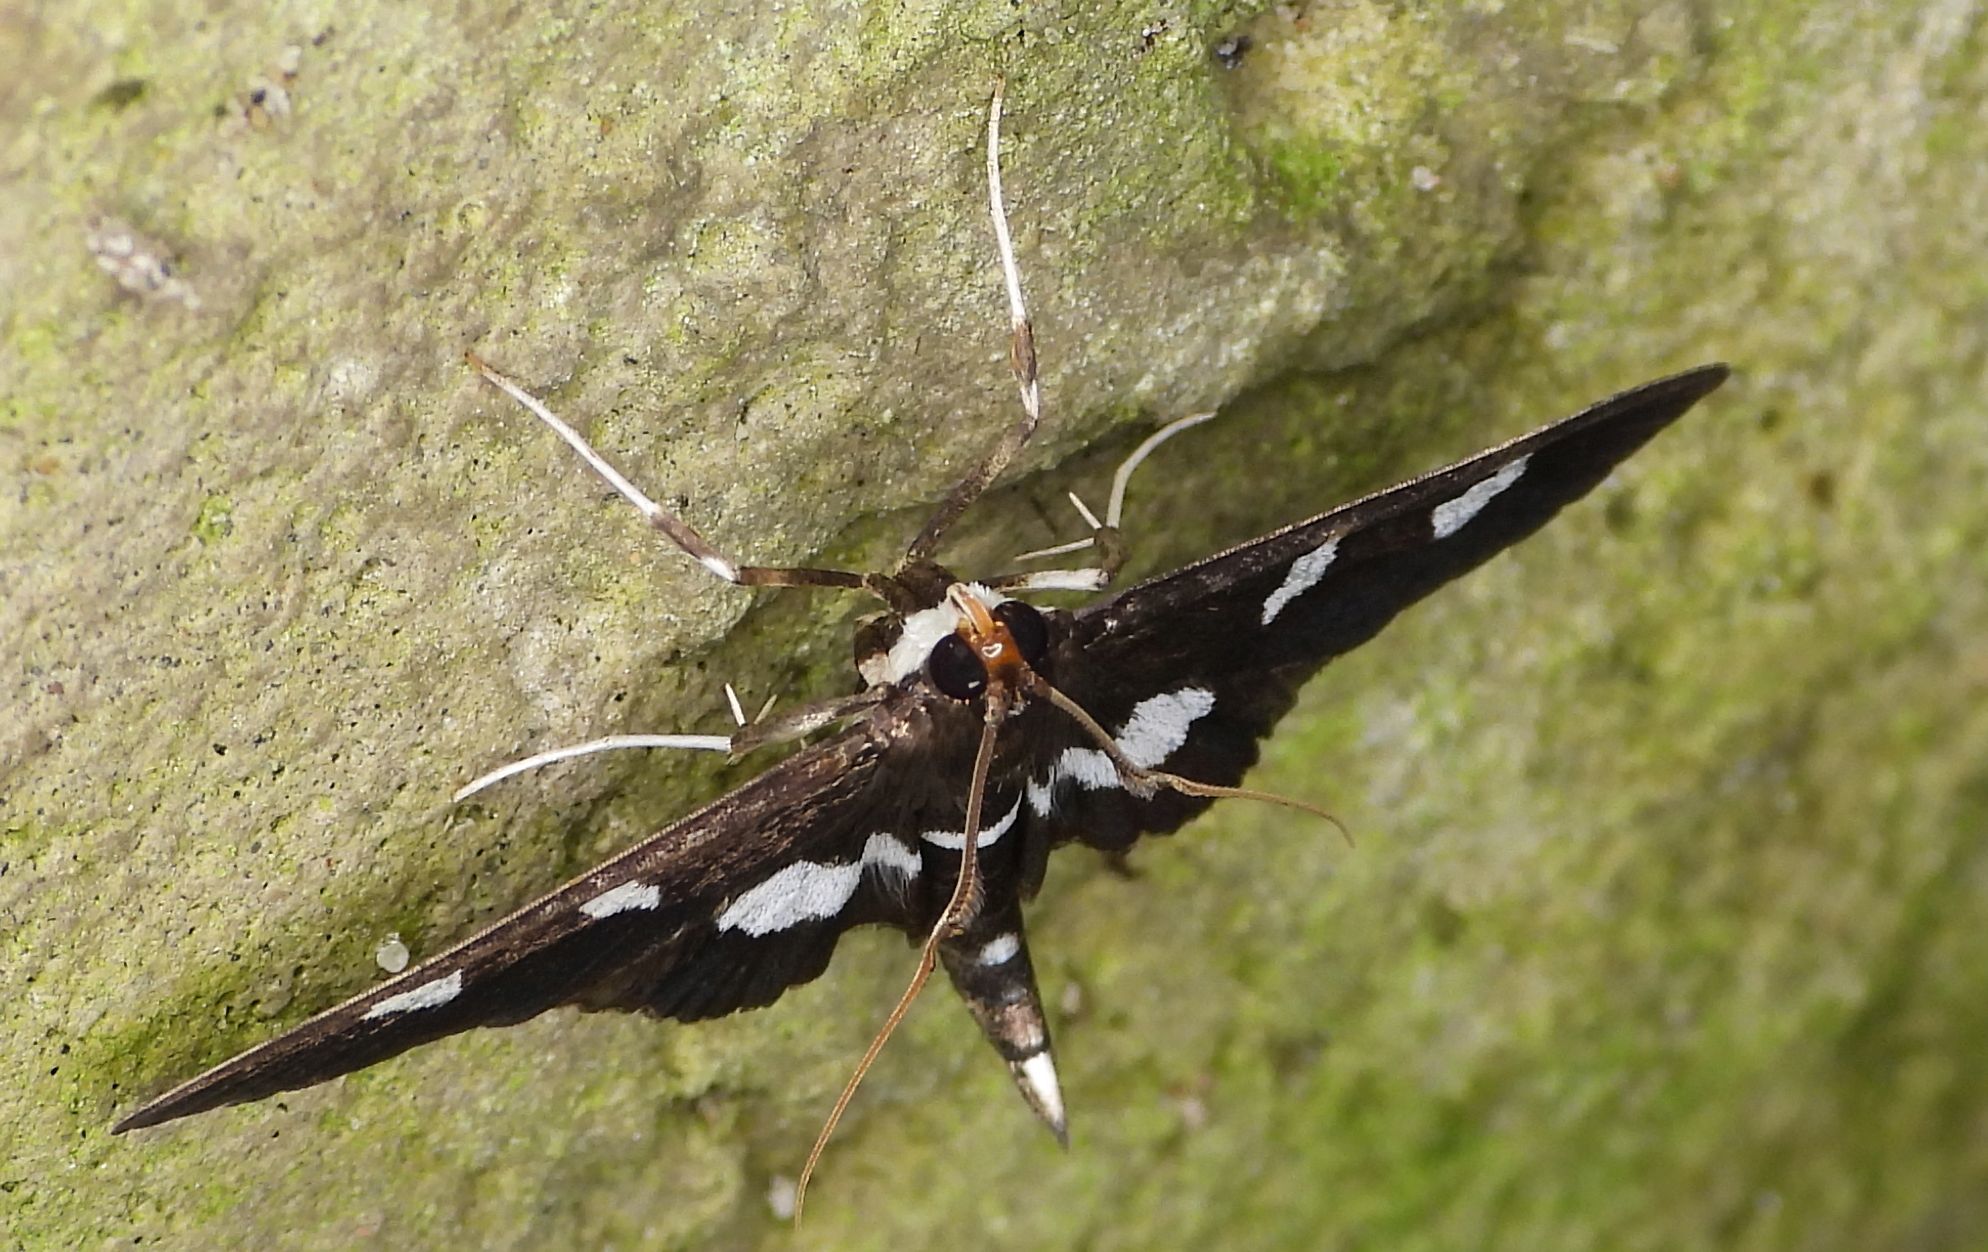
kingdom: Animalia
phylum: Arthropoda
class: Insecta
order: Lepidoptera
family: Crambidae
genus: Desmia
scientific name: Desmia
